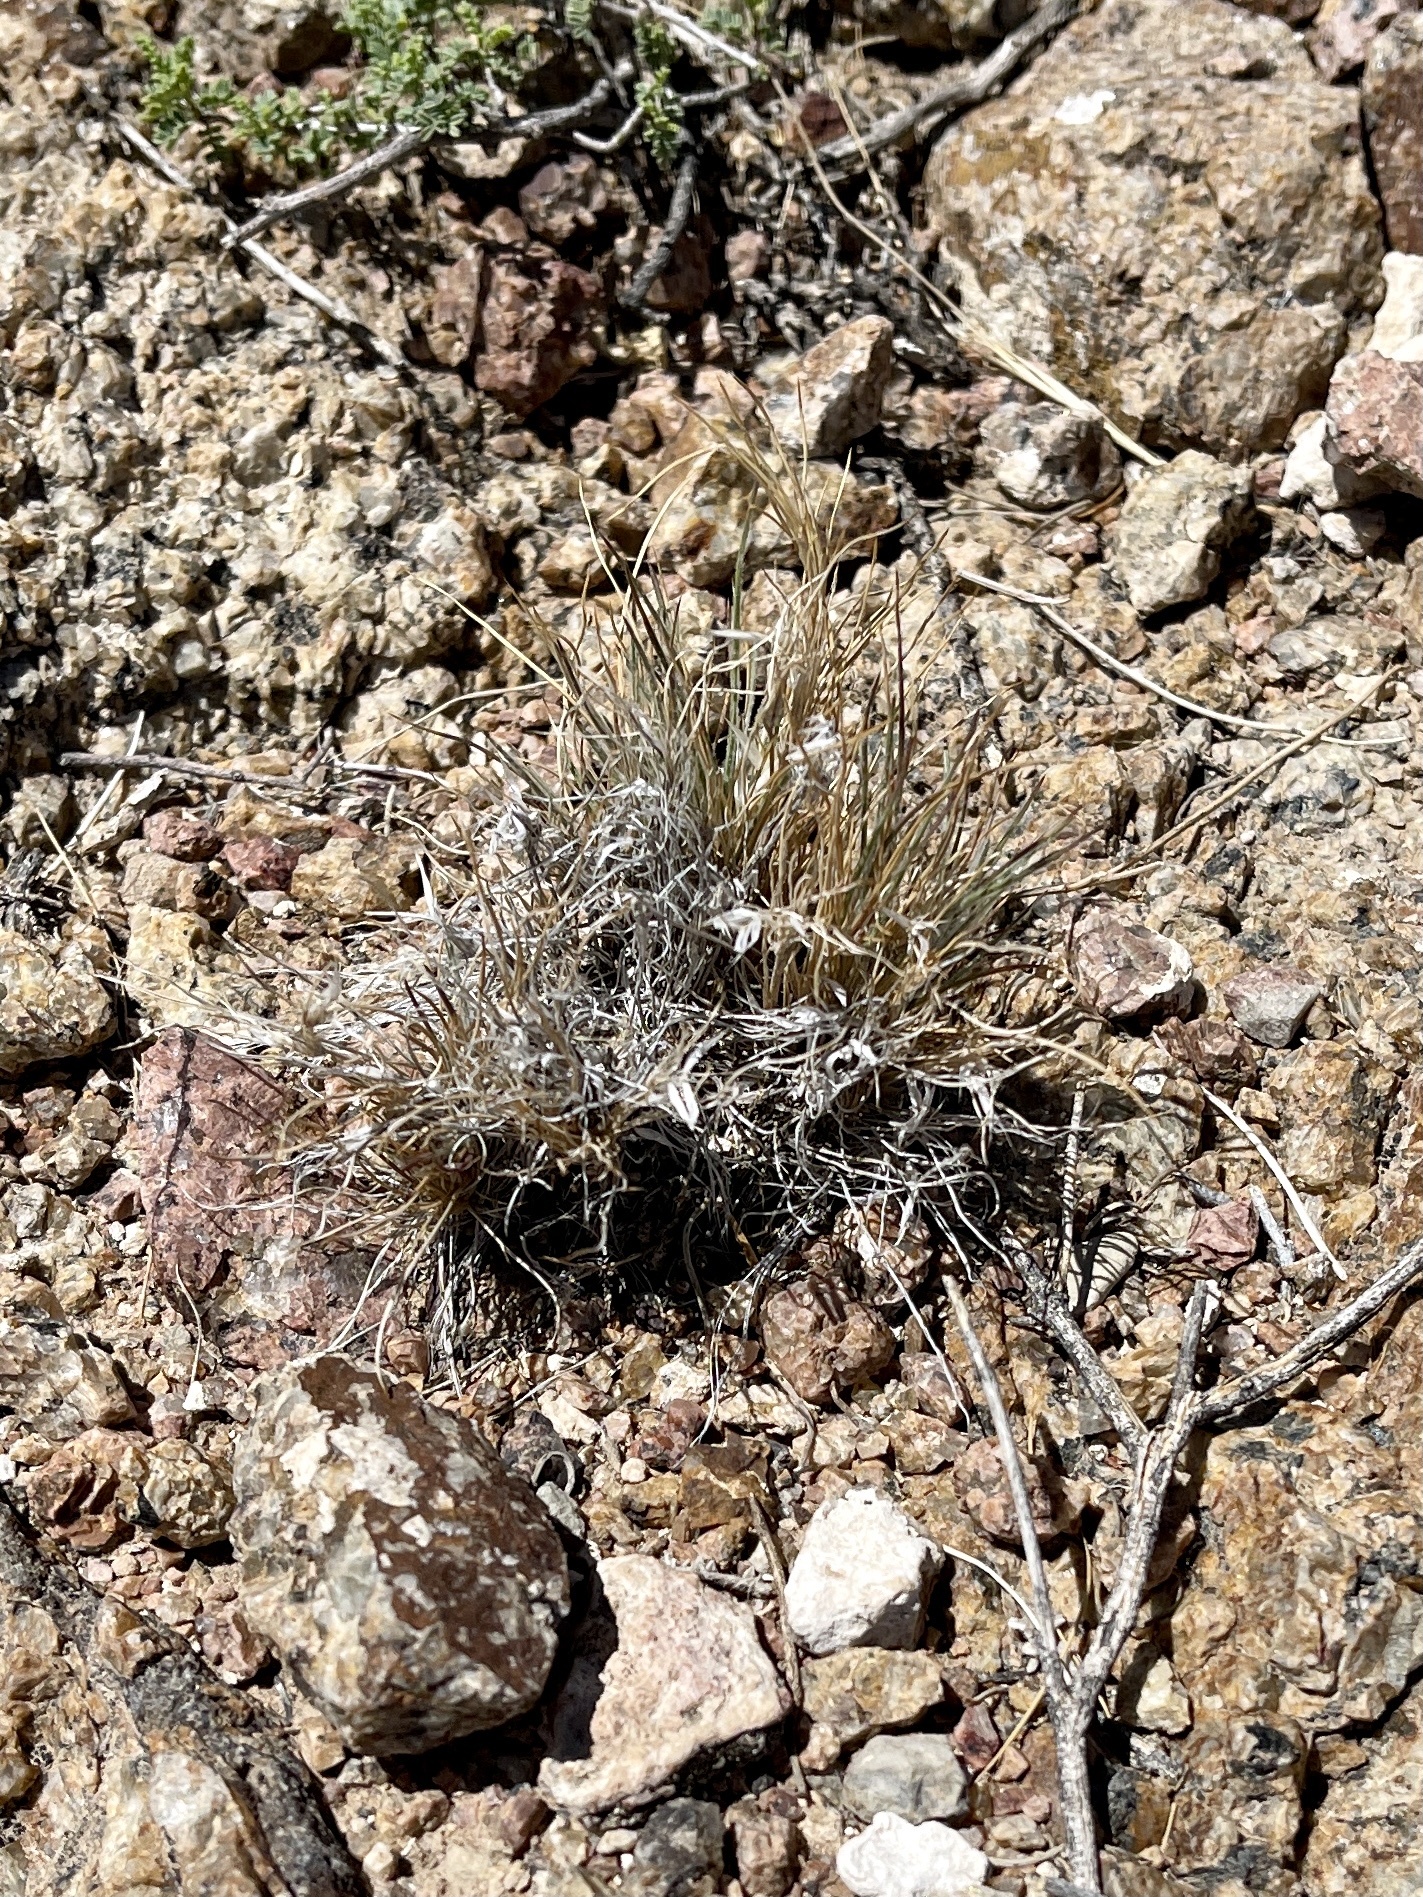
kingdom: Plantae
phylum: Tracheophyta
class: Liliopsida
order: Poales
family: Poaceae
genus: Dasyochloa
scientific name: Dasyochloa pulchella
